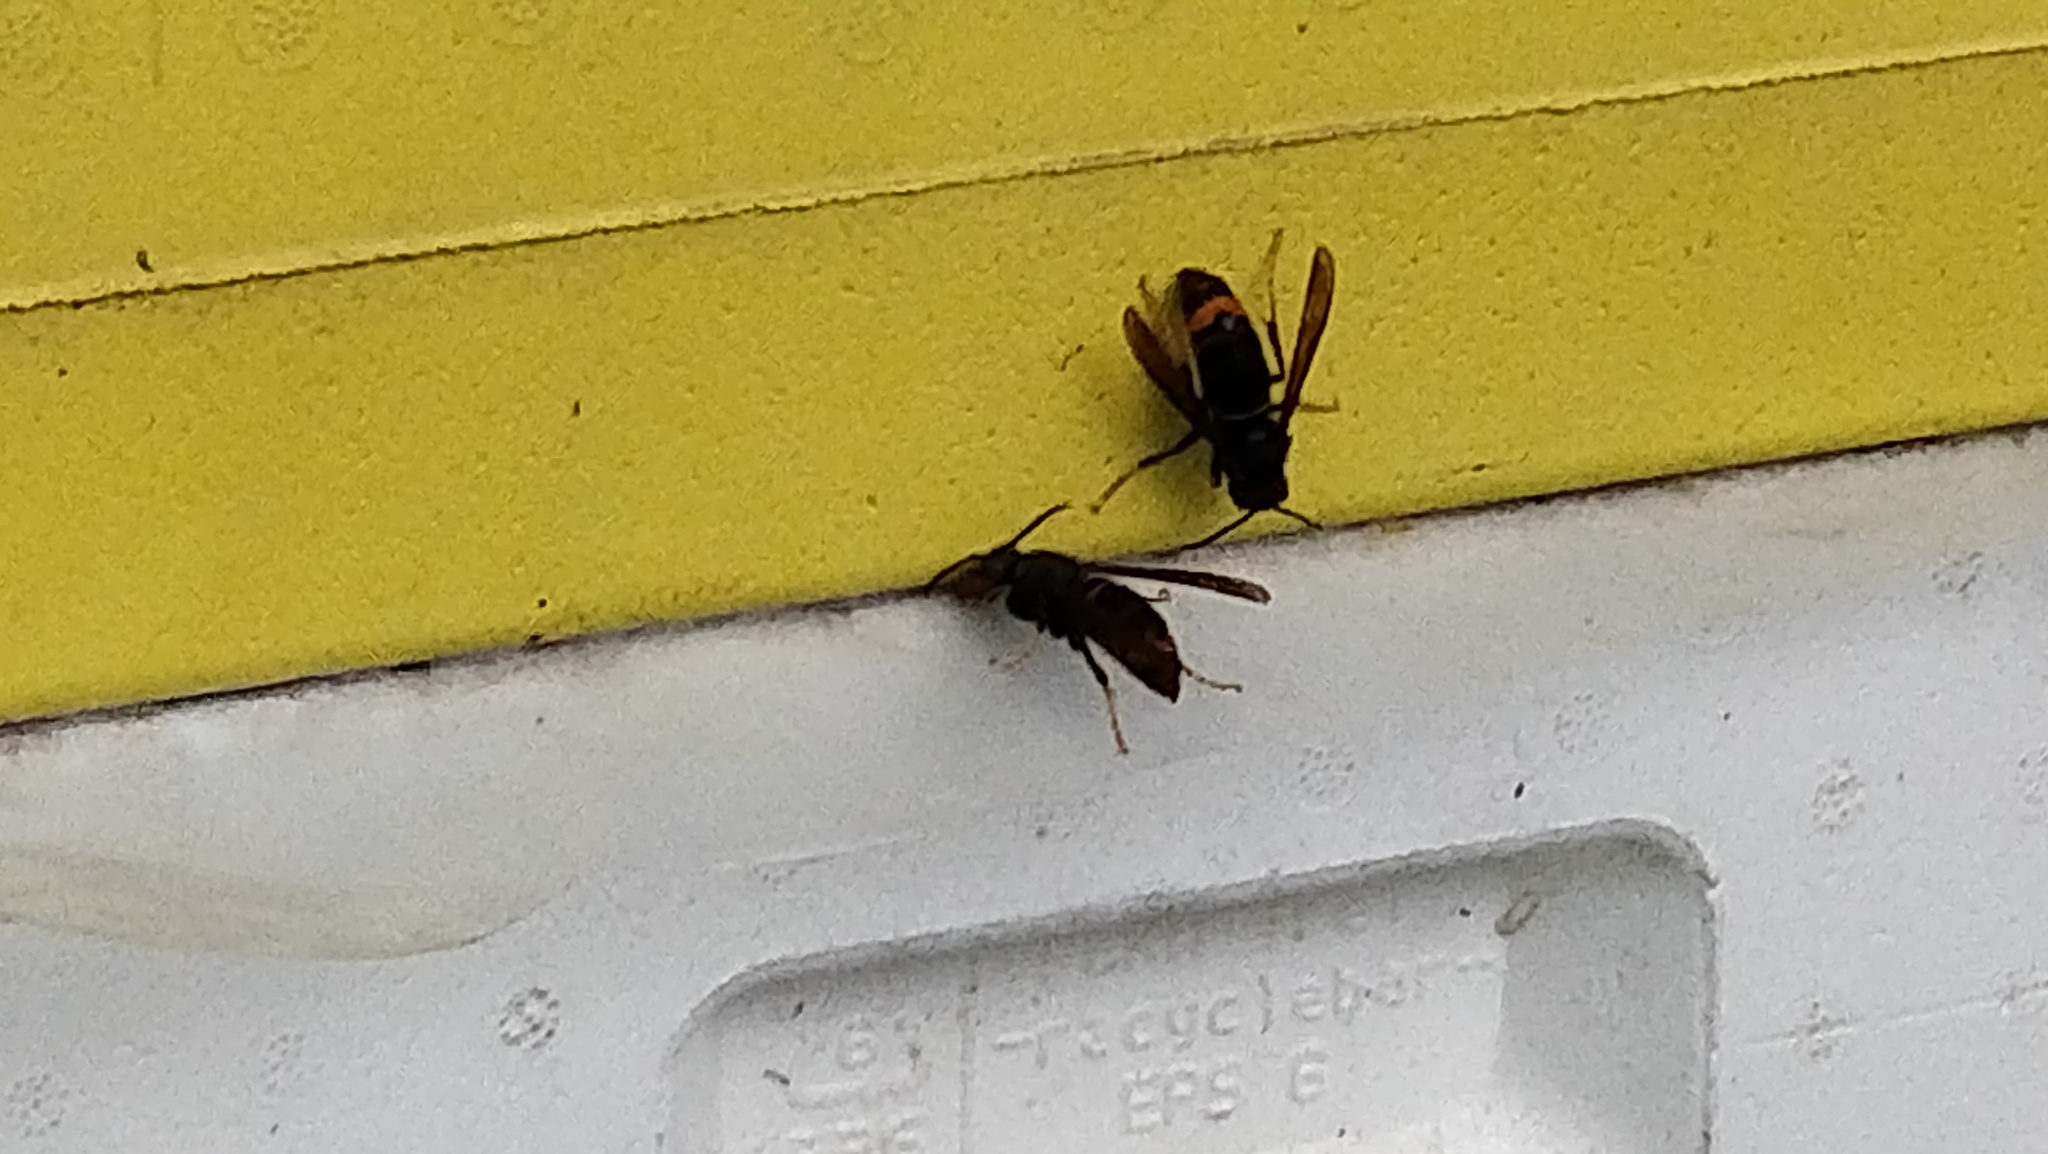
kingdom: Animalia
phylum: Arthropoda
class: Insecta
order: Hymenoptera
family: Vespidae
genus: Vespa
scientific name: Vespa velutina
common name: Asian hornet
